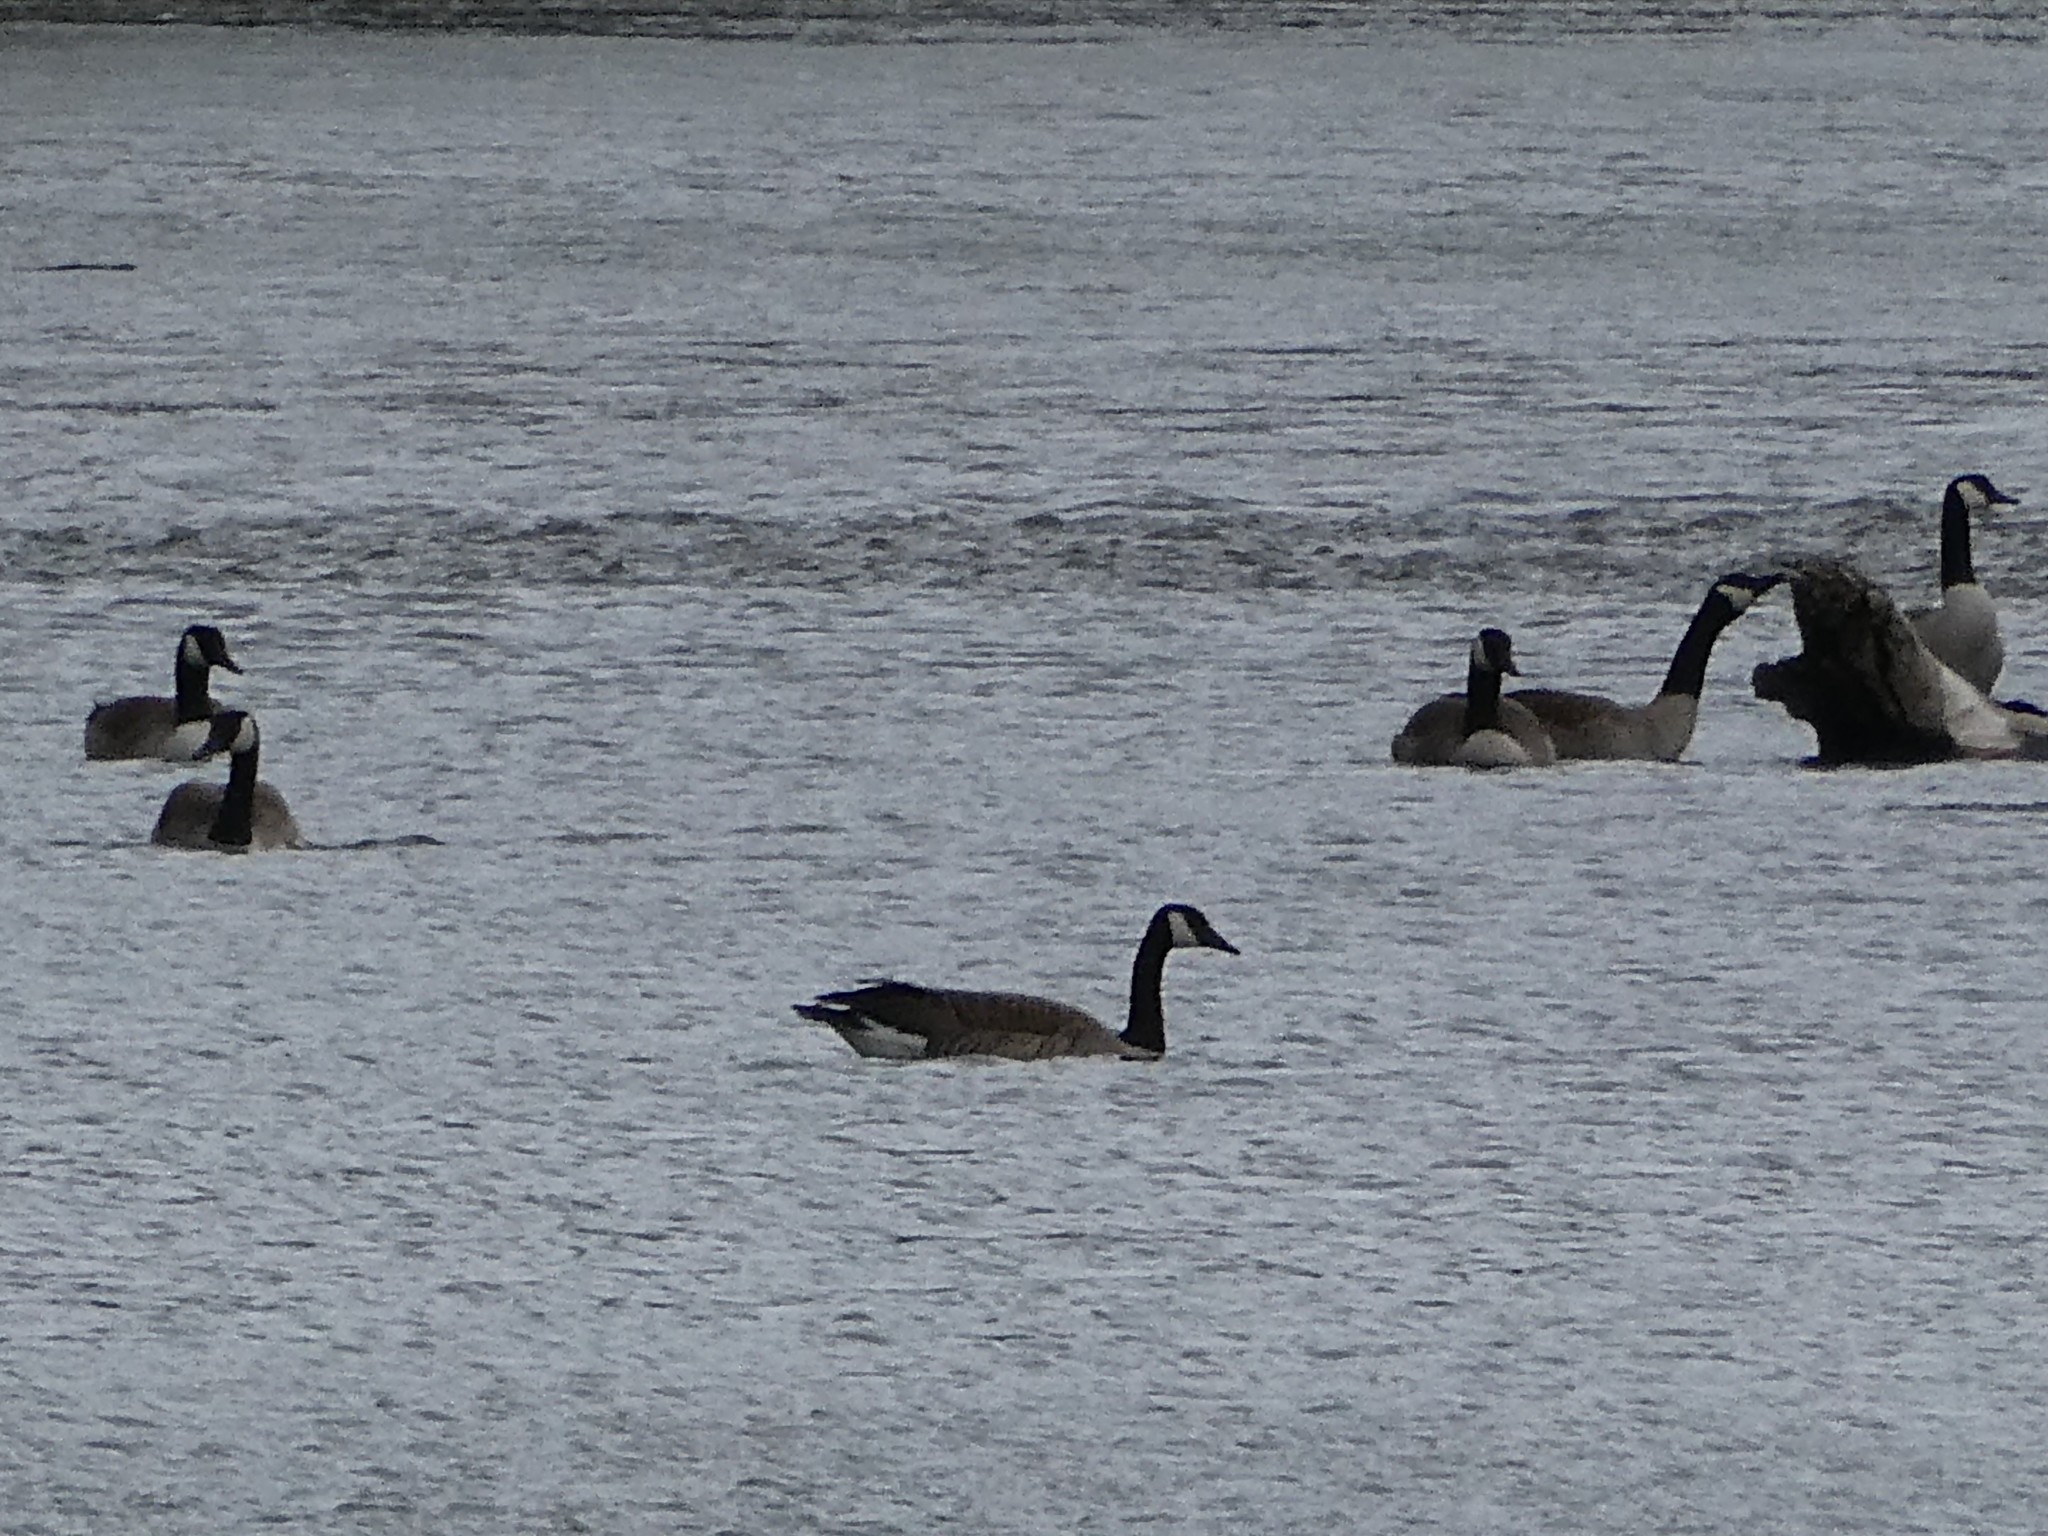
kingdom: Animalia
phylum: Chordata
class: Aves
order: Anseriformes
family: Anatidae
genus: Branta
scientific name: Branta canadensis
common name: Canada goose
